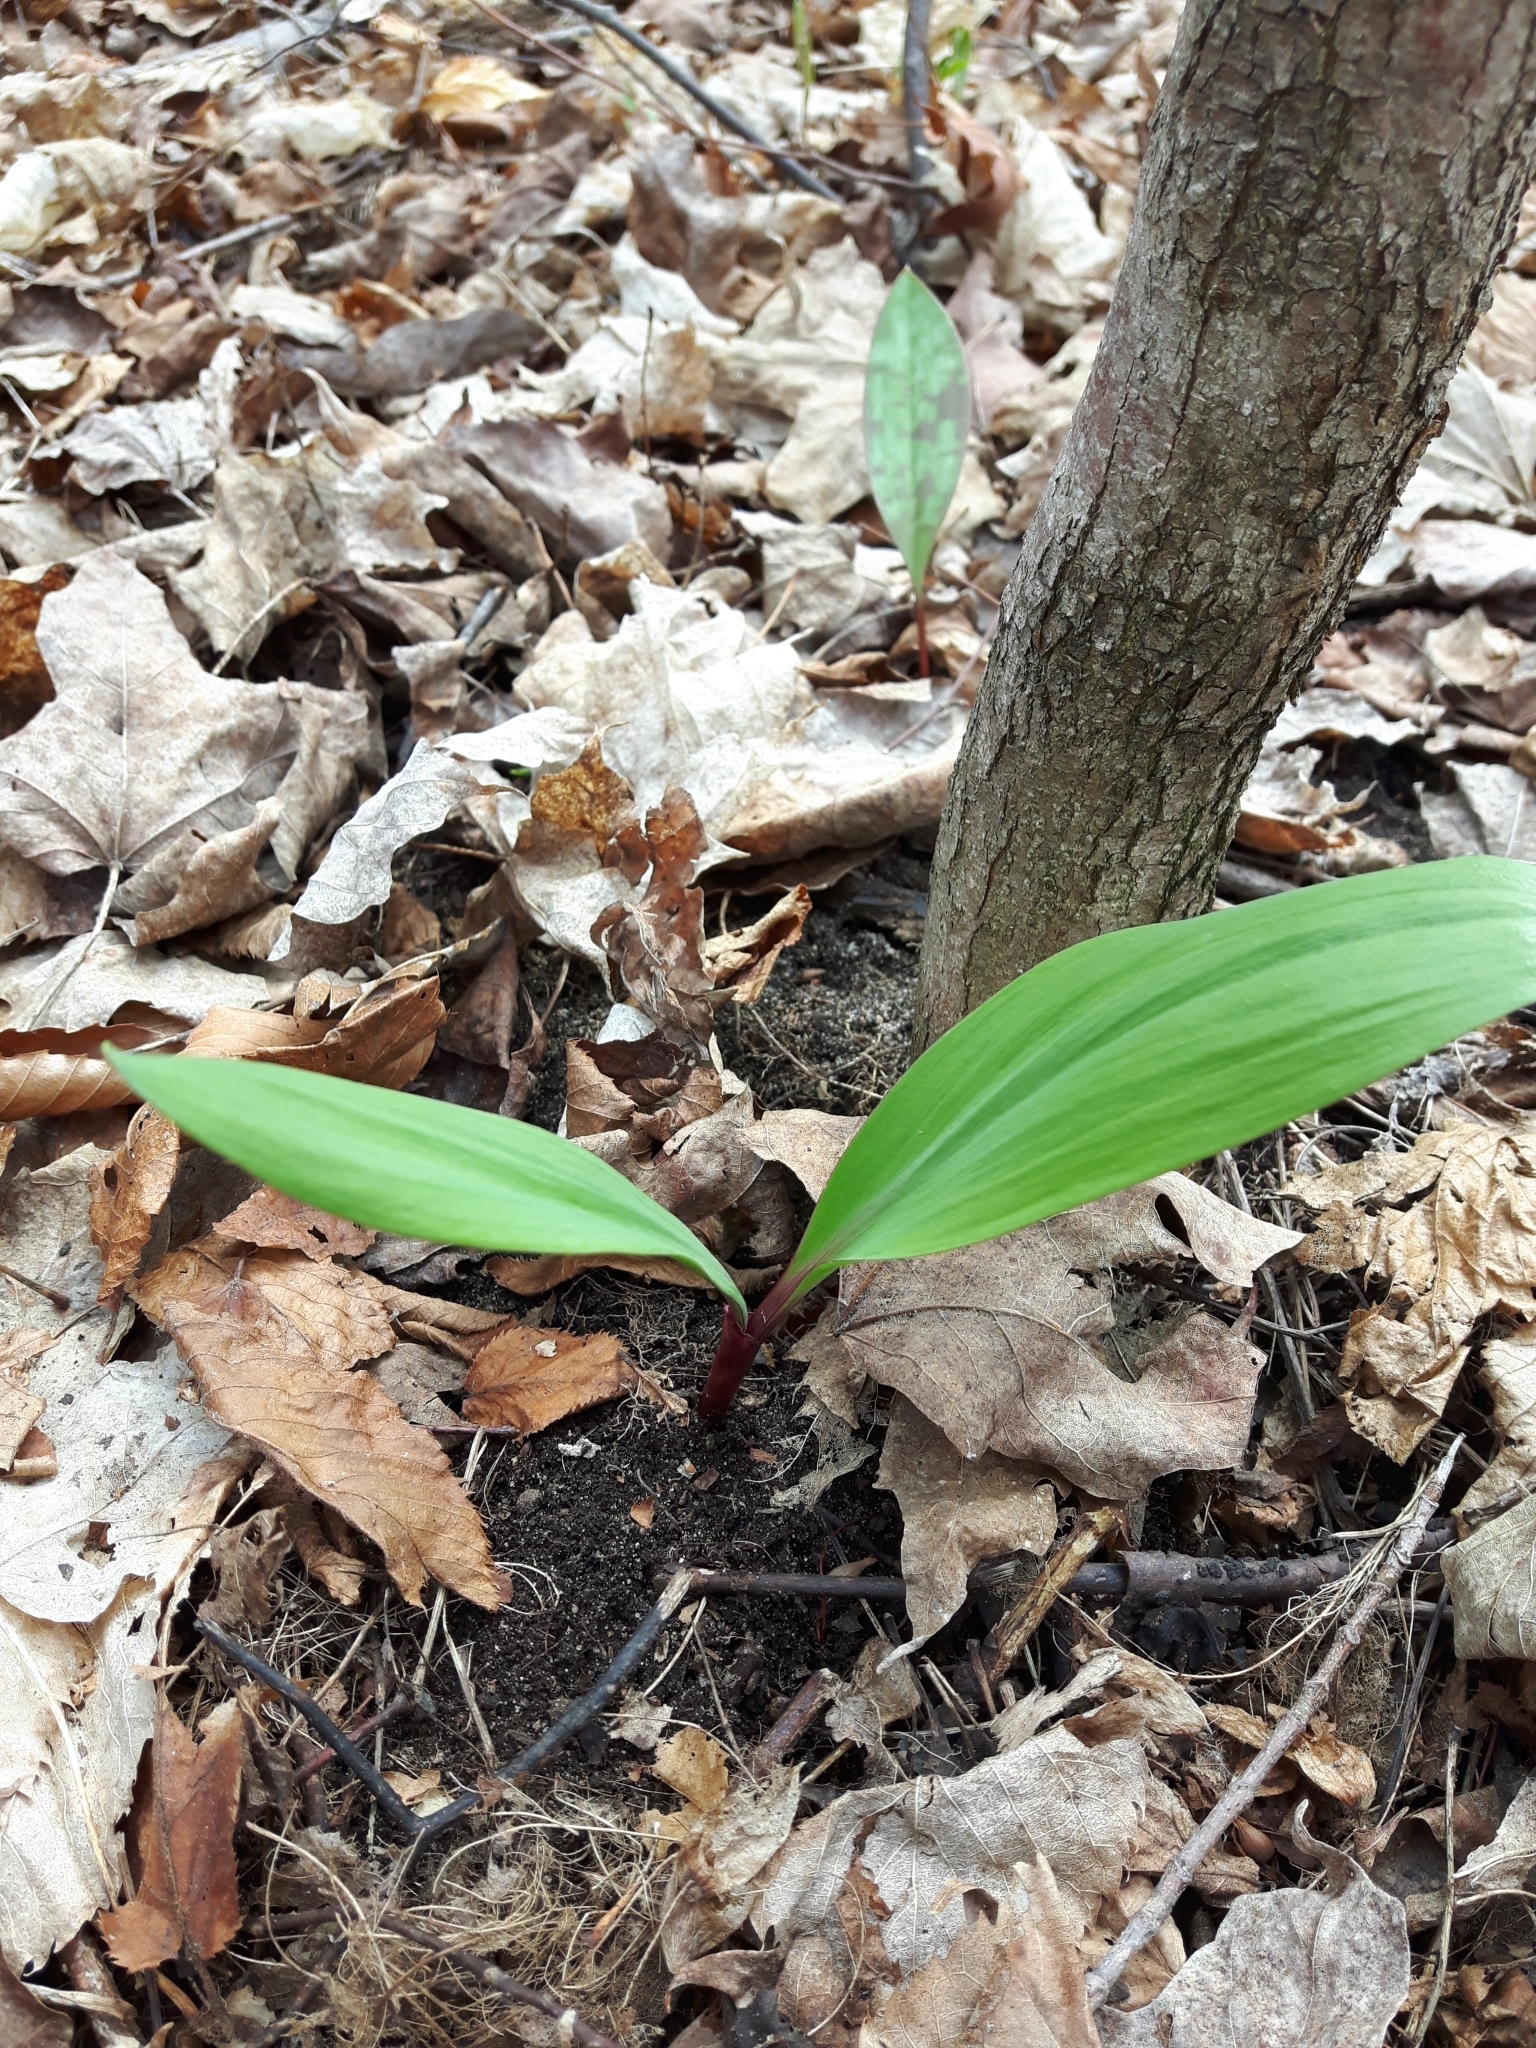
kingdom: Plantae
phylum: Tracheophyta
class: Liliopsida
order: Asparagales
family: Amaryllidaceae
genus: Allium
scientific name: Allium tricoccum
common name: Ramp
